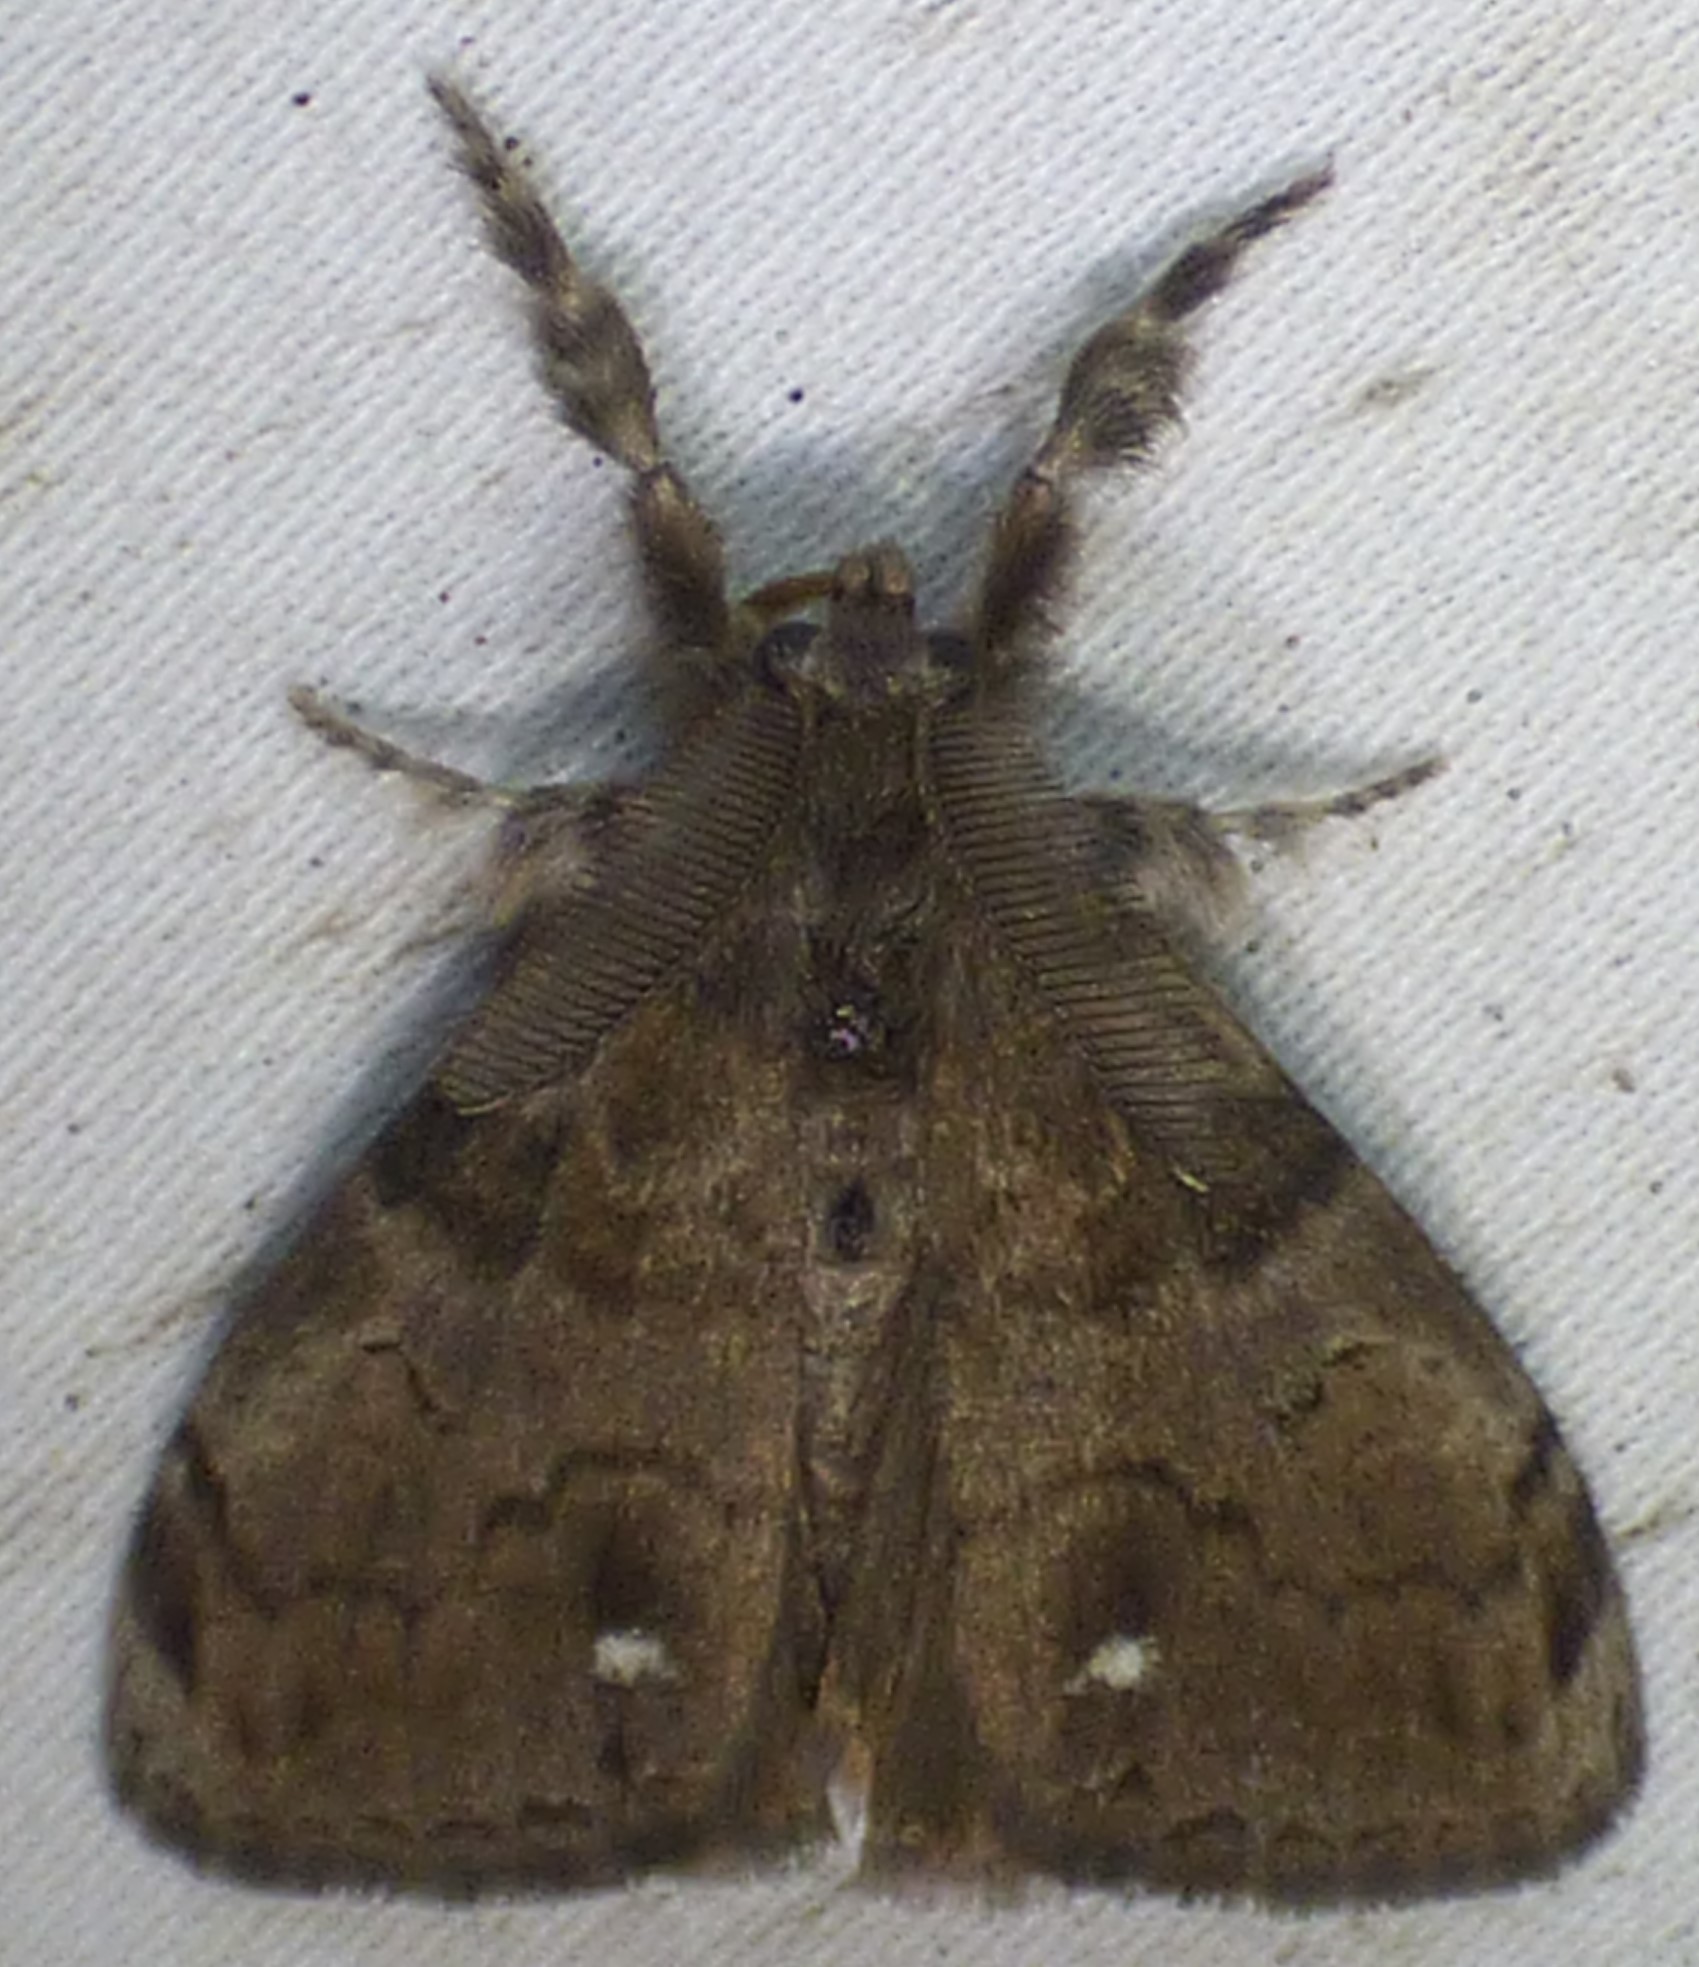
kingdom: Animalia
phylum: Arthropoda
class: Insecta
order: Lepidoptera
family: Erebidae
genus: Orgyia
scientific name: Orgyia leucostigma
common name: White-marked tussock moth
